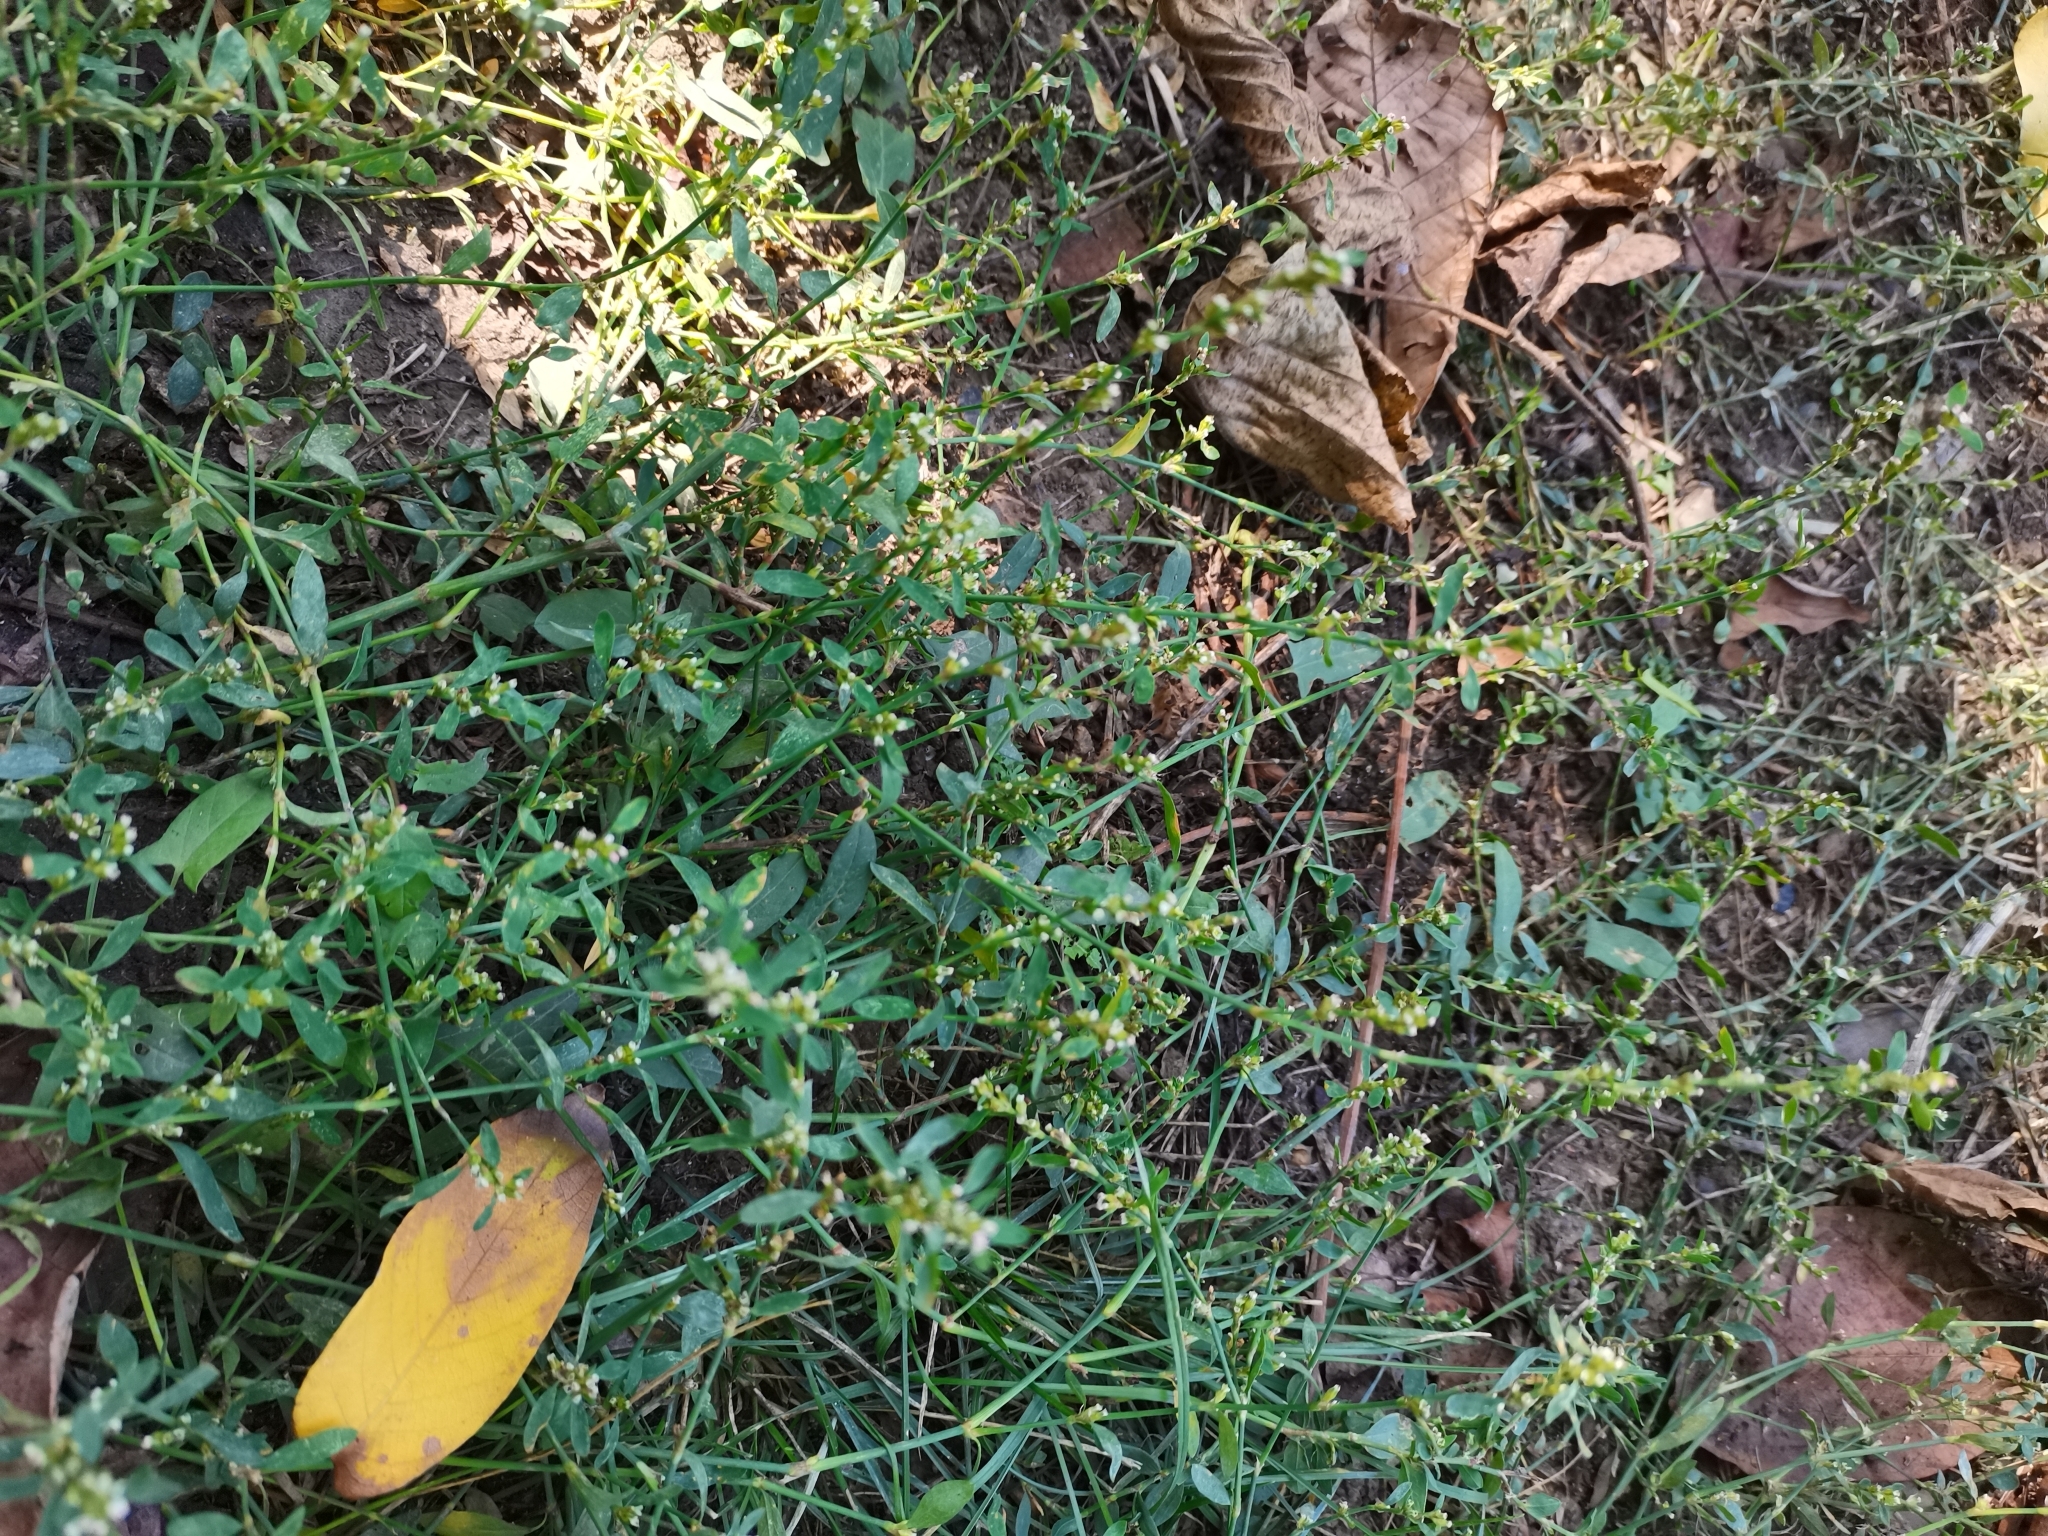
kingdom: Plantae
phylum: Tracheophyta
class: Magnoliopsida
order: Caryophyllales
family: Polygonaceae
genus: Polygonum
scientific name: Polygonum aviculare
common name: Prostrate knotweed
